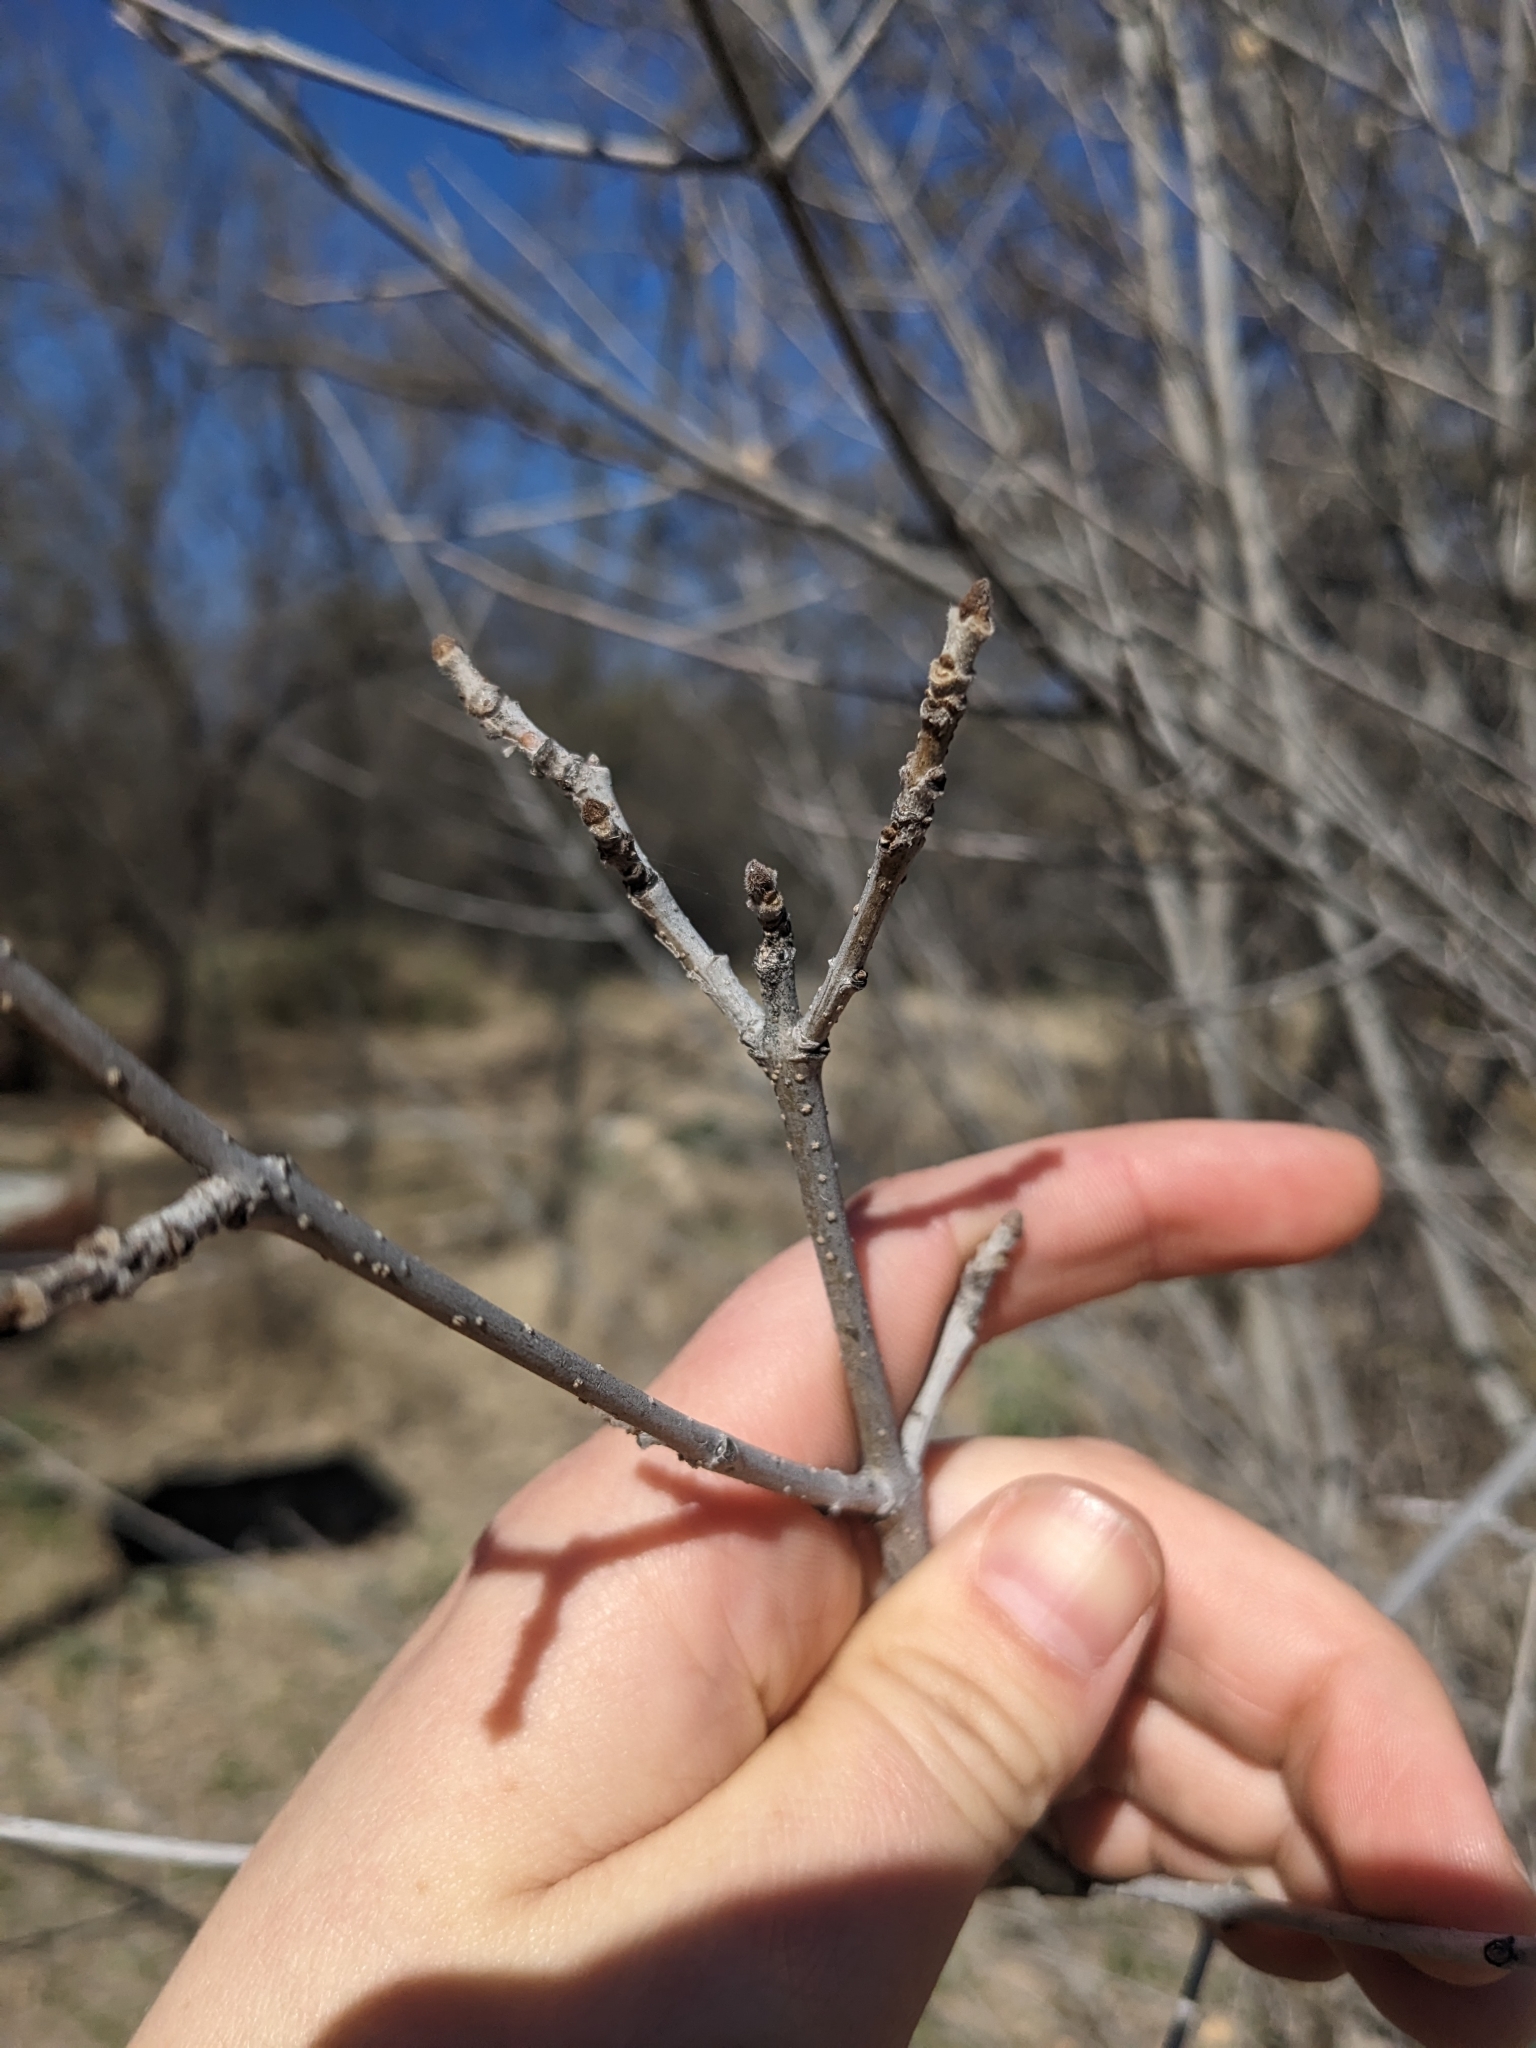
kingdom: Plantae
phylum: Tracheophyta
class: Magnoliopsida
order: Lamiales
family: Oleaceae
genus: Fraxinus
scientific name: Fraxinus velutina
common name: Arizon ash
